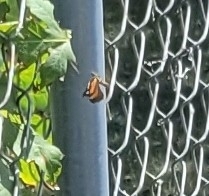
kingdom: Animalia
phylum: Arthropoda
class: Insecta
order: Lepidoptera
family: Nymphalidae
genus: Libytheana
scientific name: Libytheana carinenta
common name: American snout
